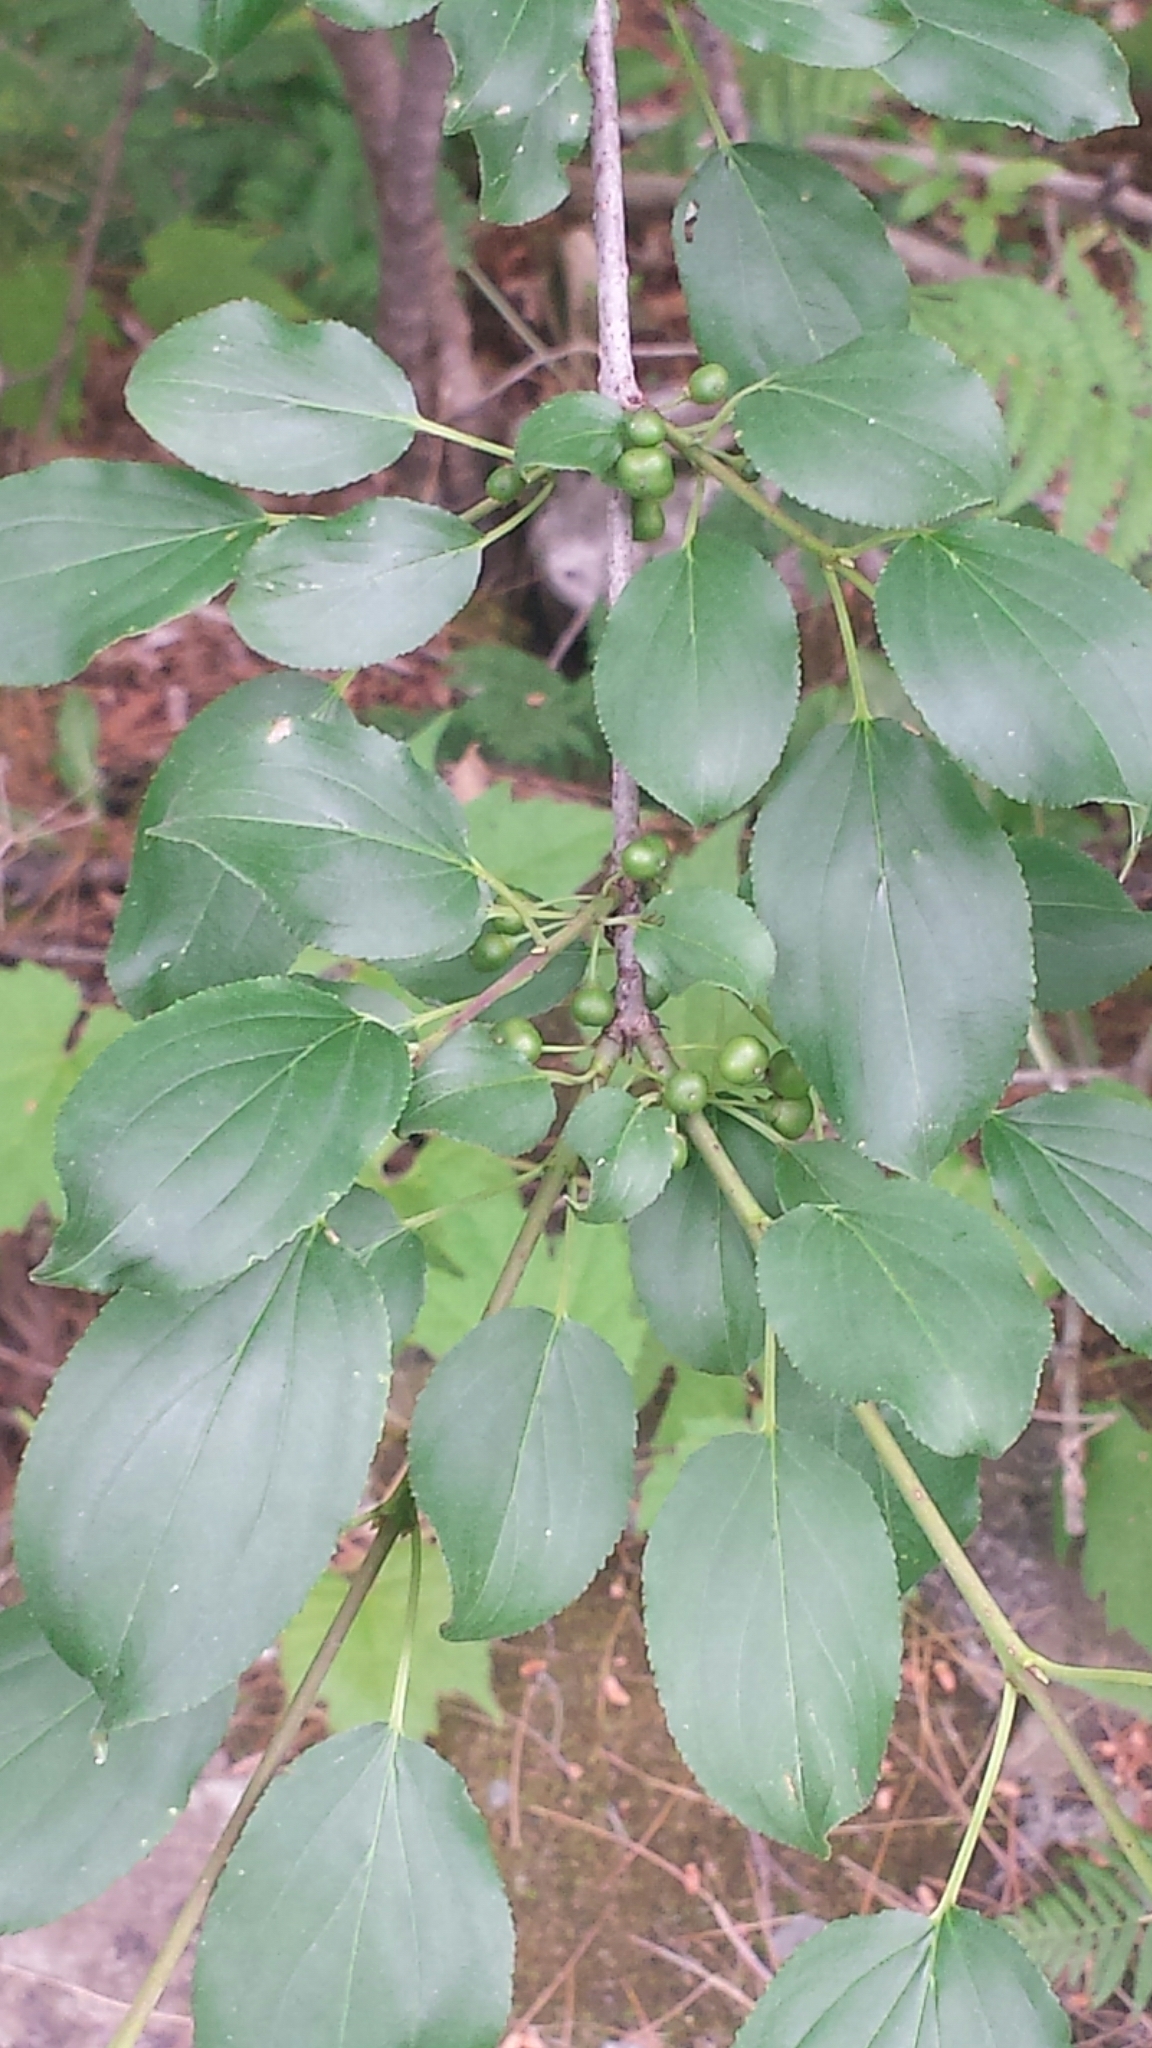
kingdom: Plantae
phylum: Tracheophyta
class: Magnoliopsida
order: Rosales
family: Rhamnaceae
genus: Rhamnus
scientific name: Rhamnus cathartica
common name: Common buckthorn
